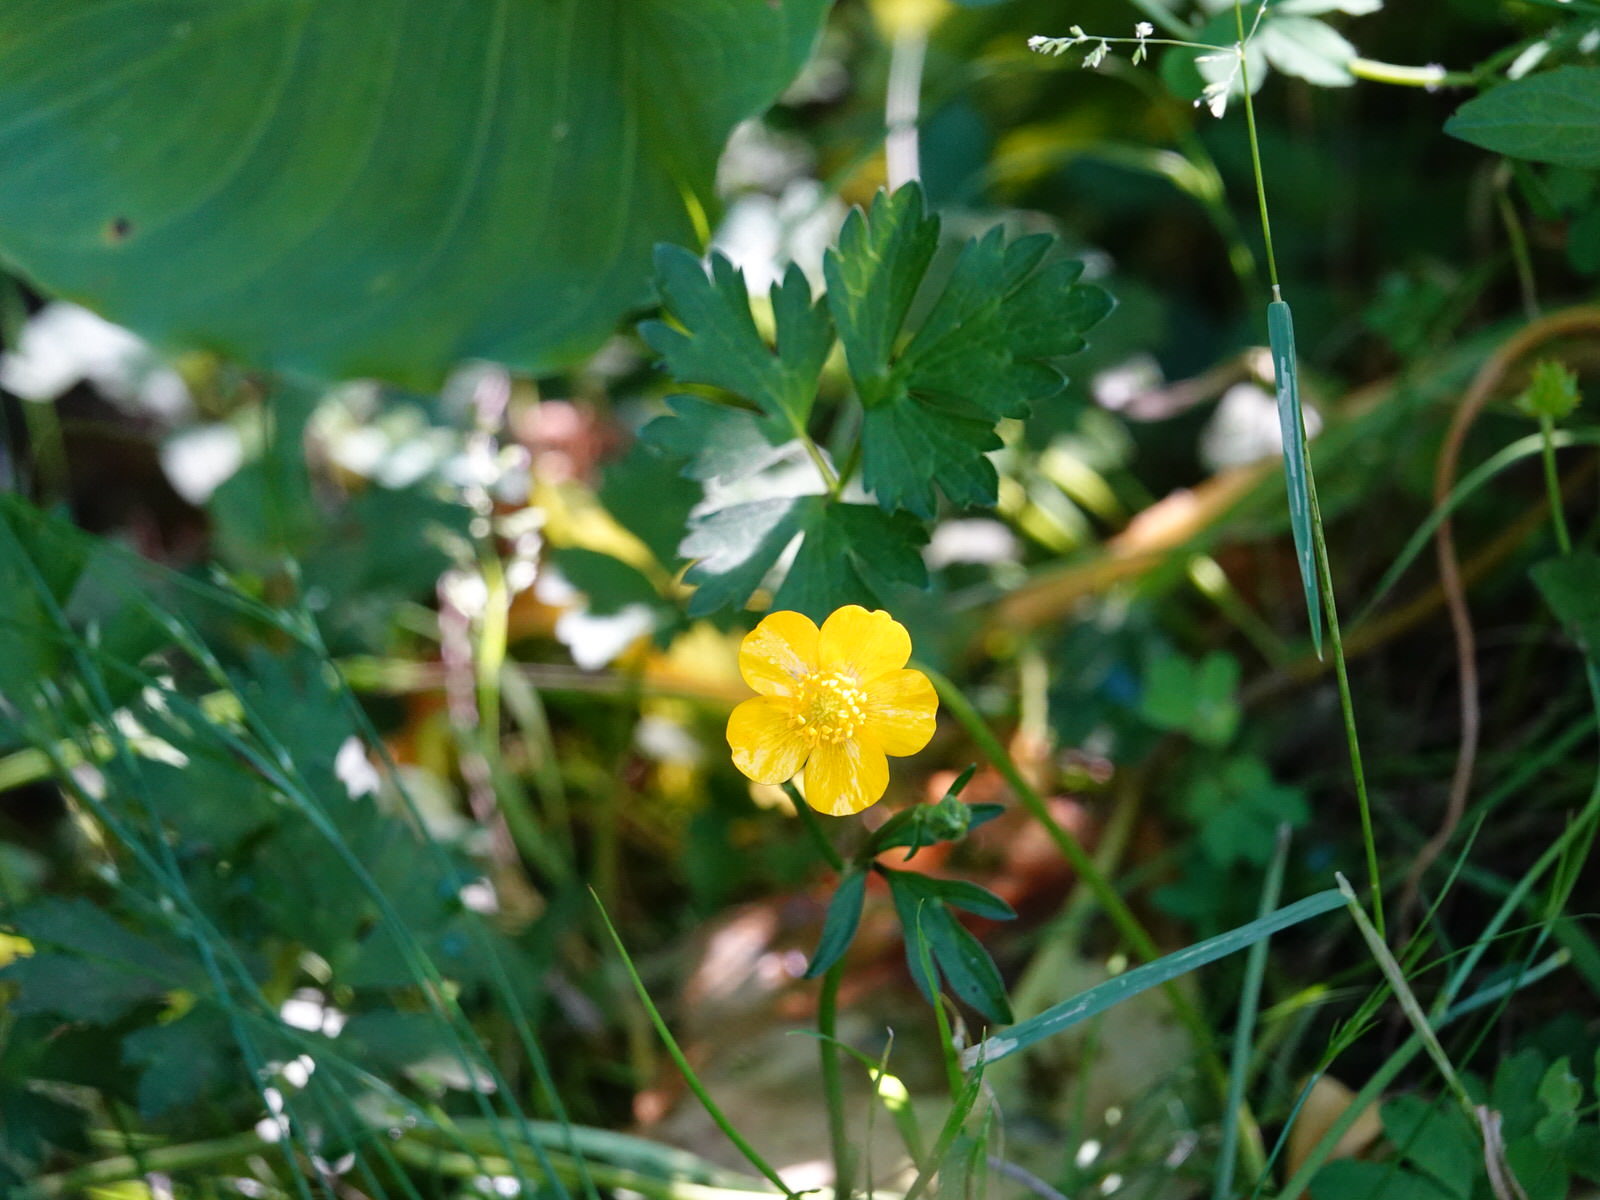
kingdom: Plantae
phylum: Tracheophyta
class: Magnoliopsida
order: Ranunculales
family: Ranunculaceae
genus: Ranunculus
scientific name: Ranunculus repens
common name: Creeping buttercup
